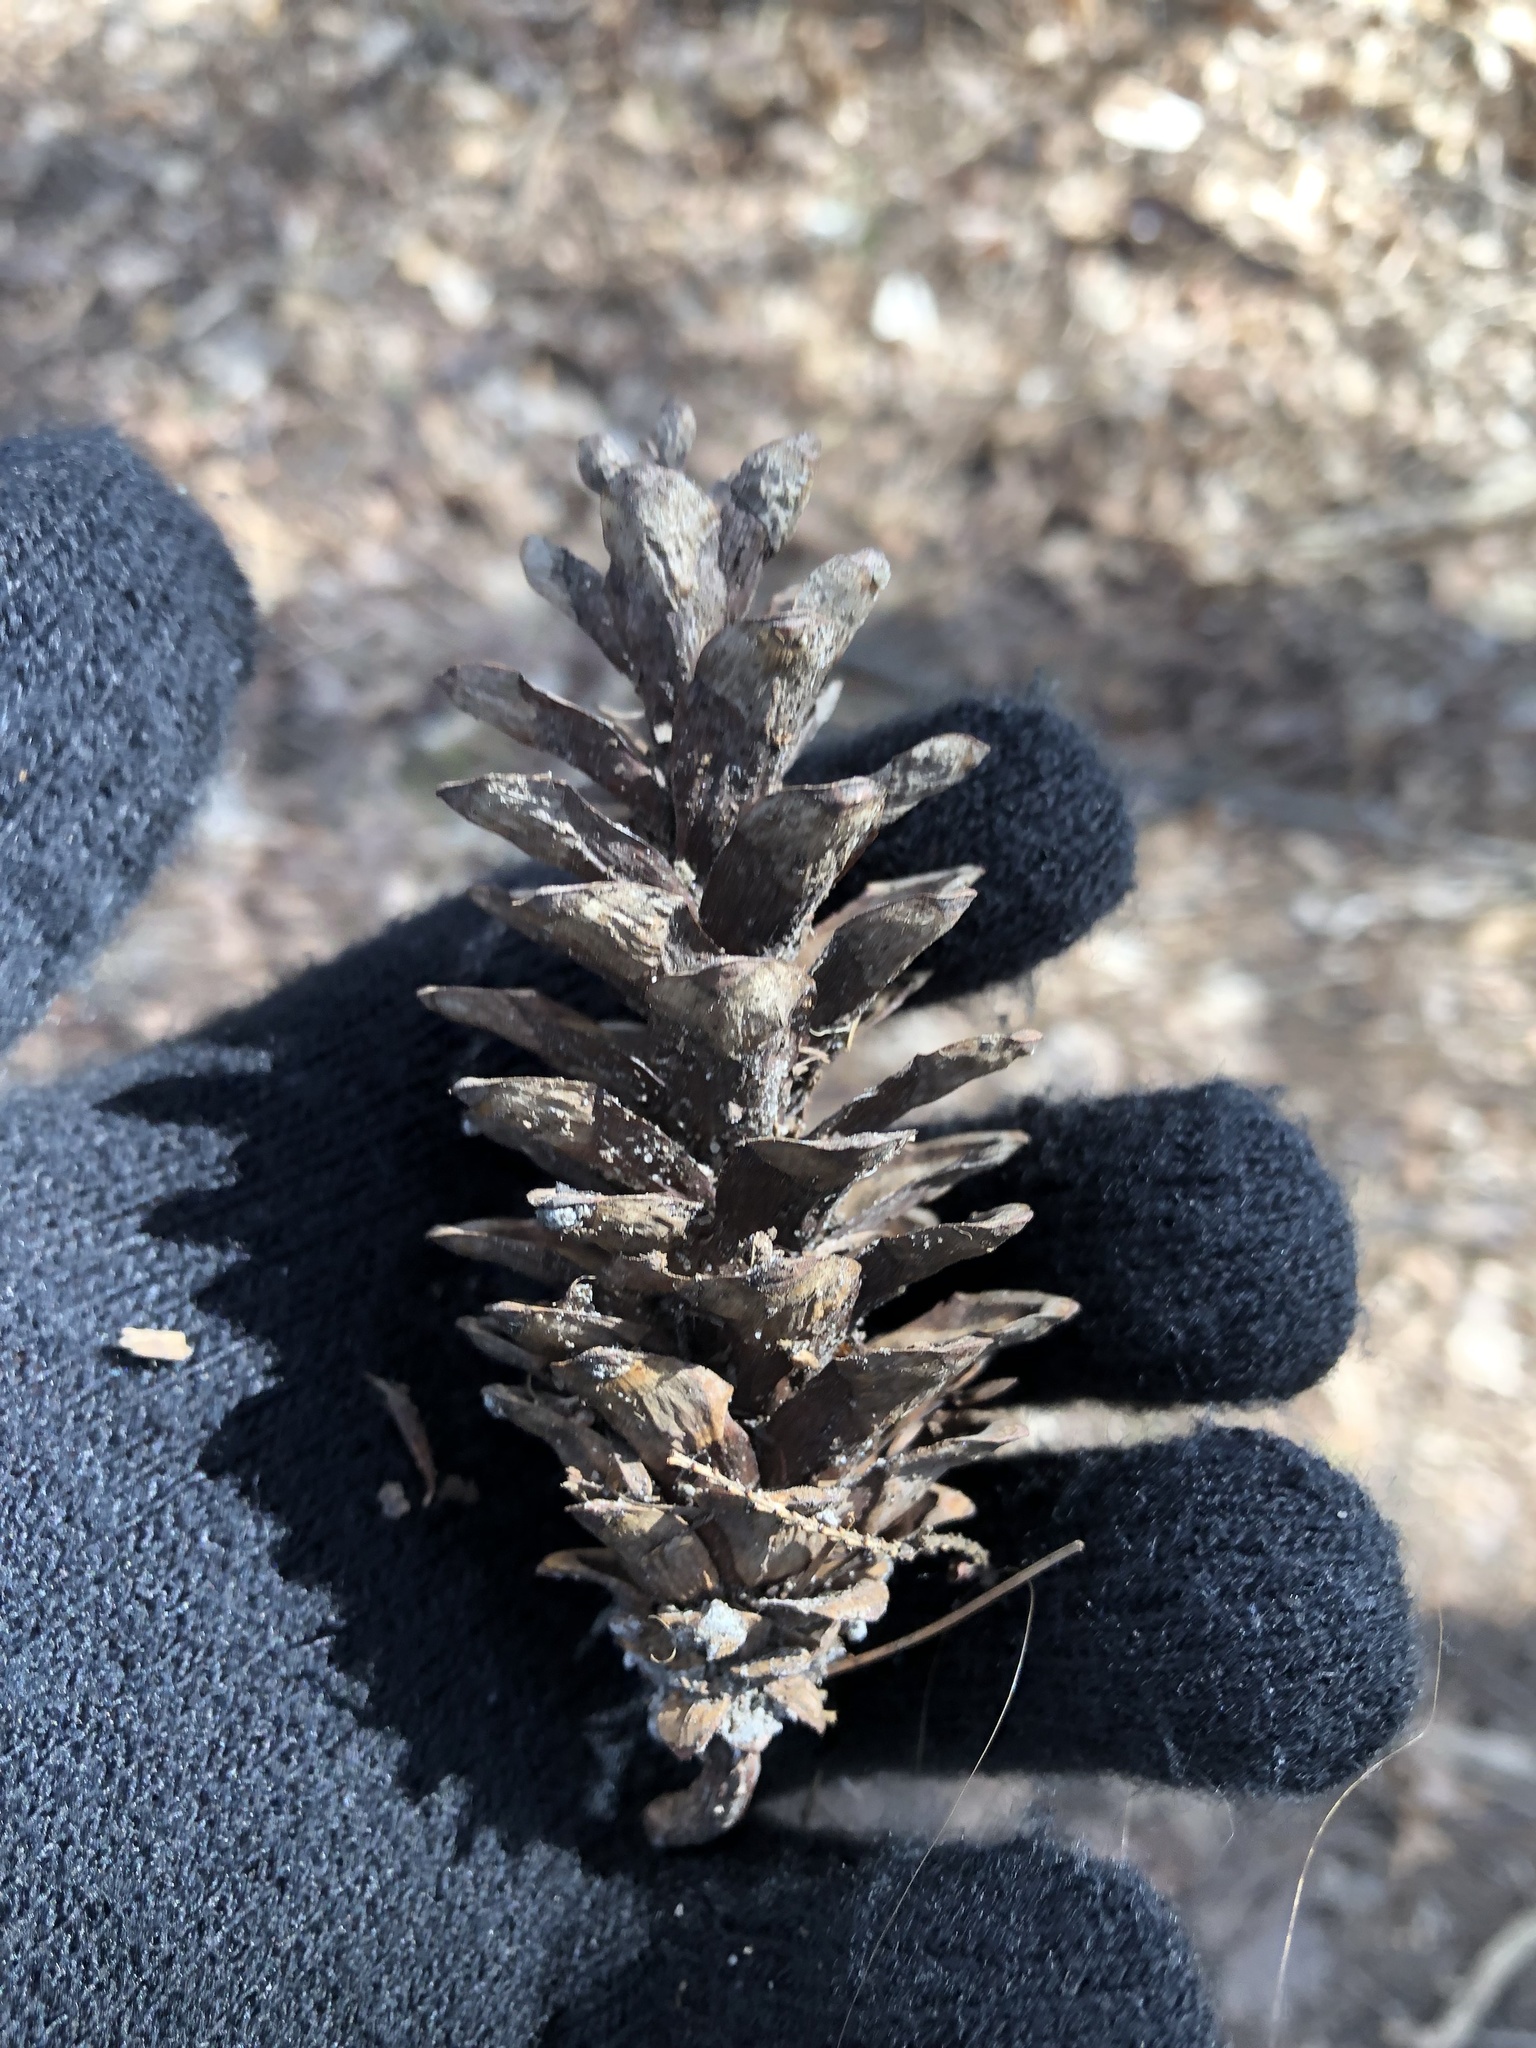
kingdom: Plantae
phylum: Tracheophyta
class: Pinopsida
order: Pinales
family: Pinaceae
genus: Pinus
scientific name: Pinus strobus
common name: Weymouth pine
